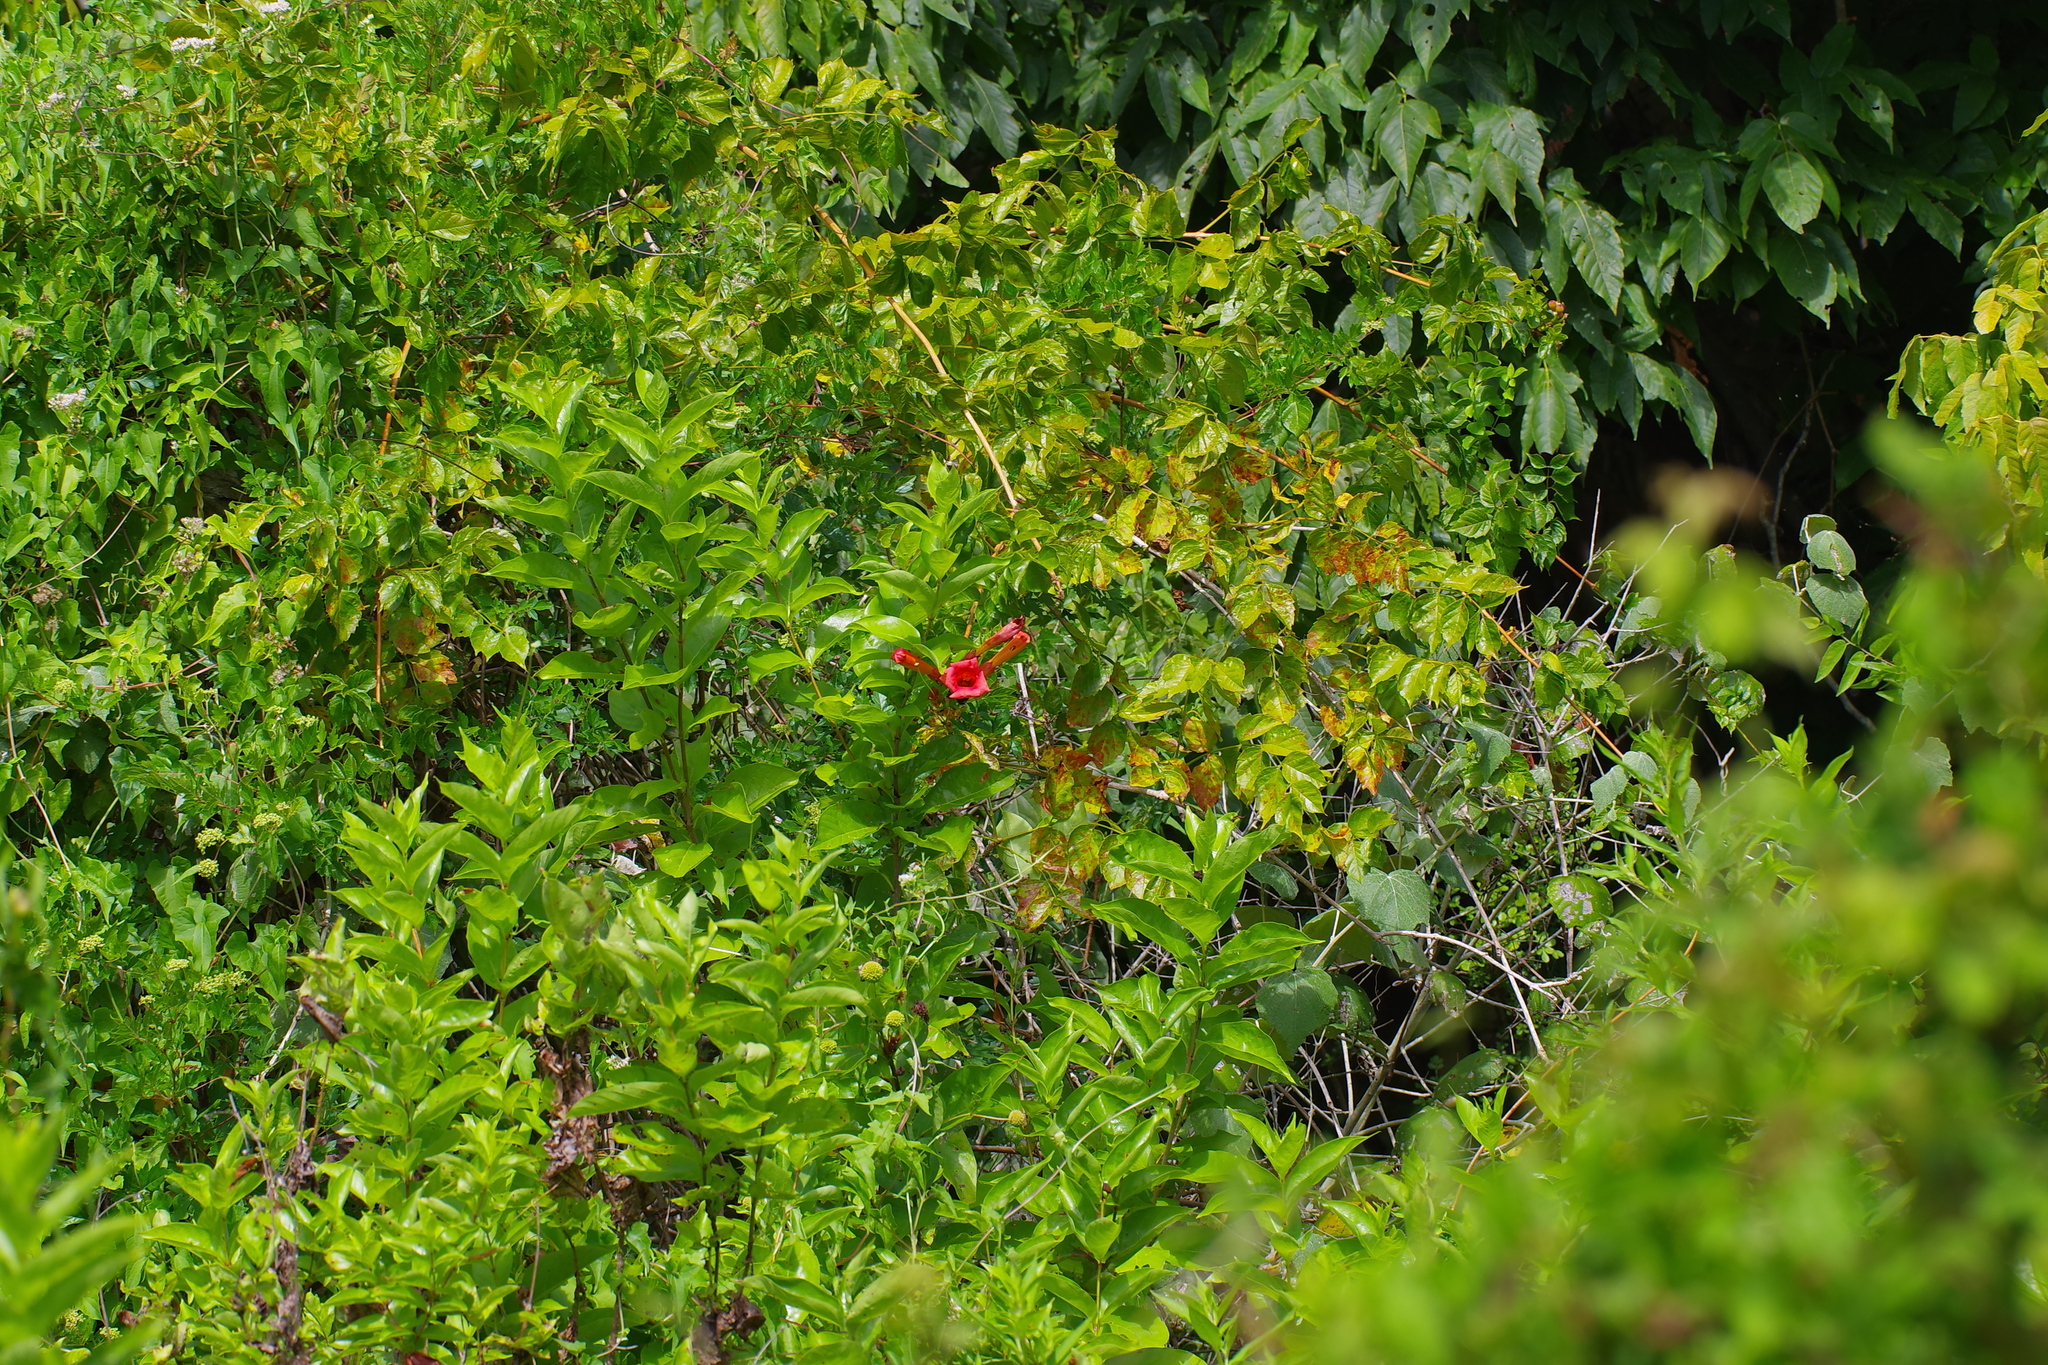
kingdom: Plantae
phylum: Tracheophyta
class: Magnoliopsida
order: Lamiales
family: Bignoniaceae
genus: Campsis
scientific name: Campsis radicans
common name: Trumpet-creeper
